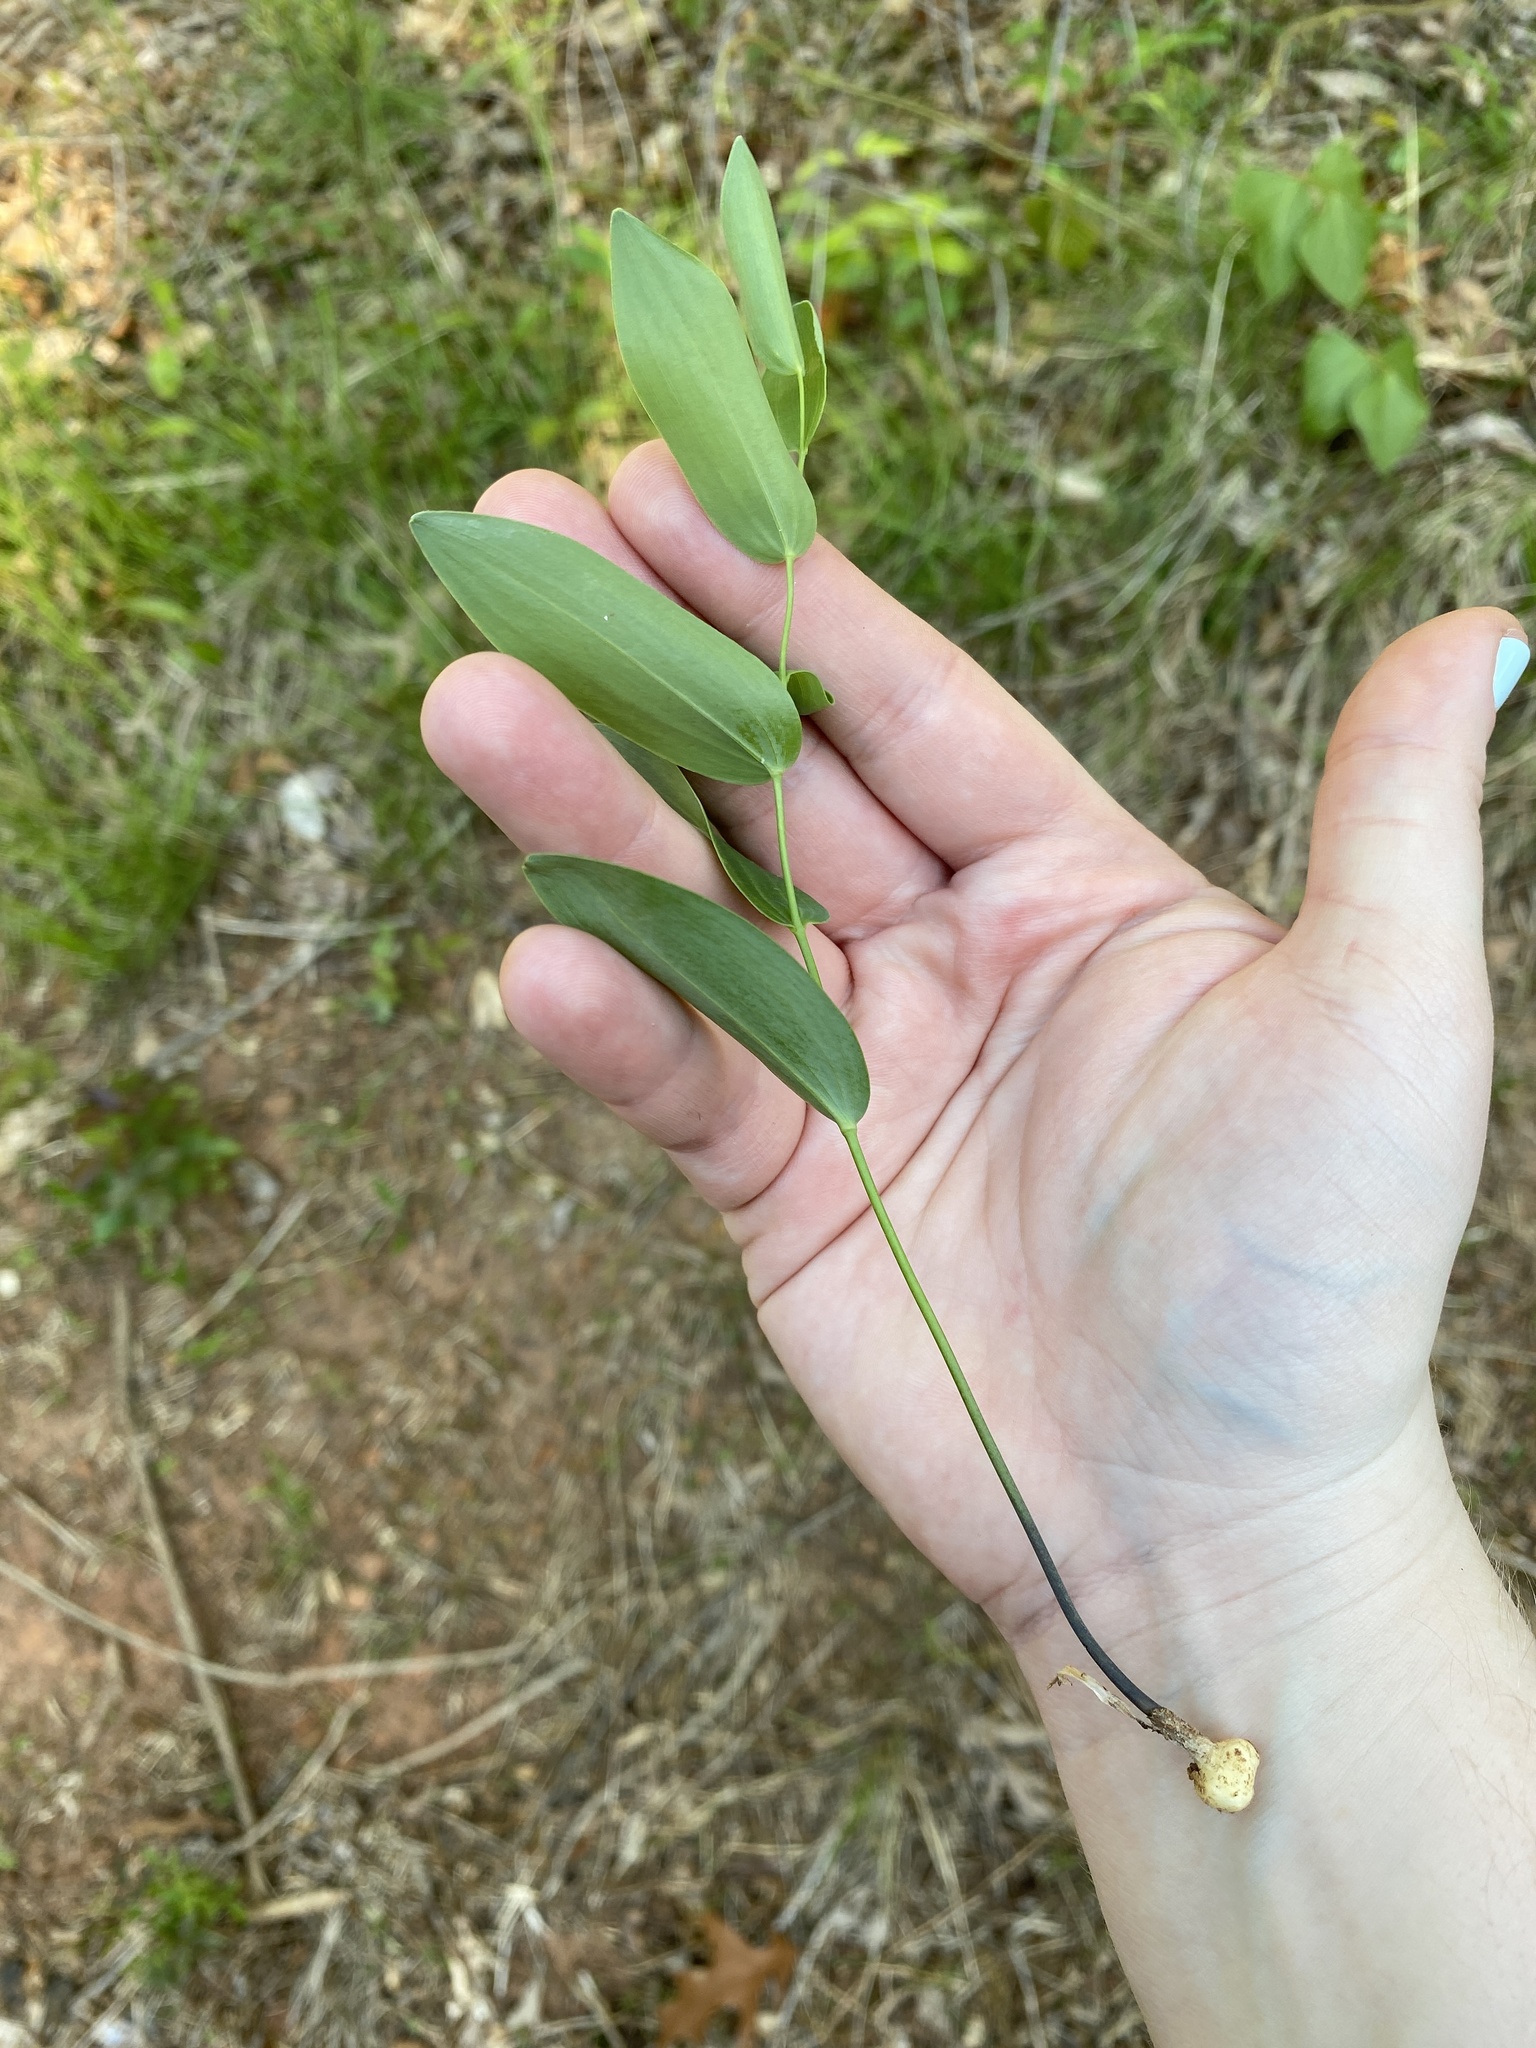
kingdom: Plantae
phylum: Tracheophyta
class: Liliopsida
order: Asparagales
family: Asparagaceae
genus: Polygonatum
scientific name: Polygonatum biflorum
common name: American solomon's-seal
